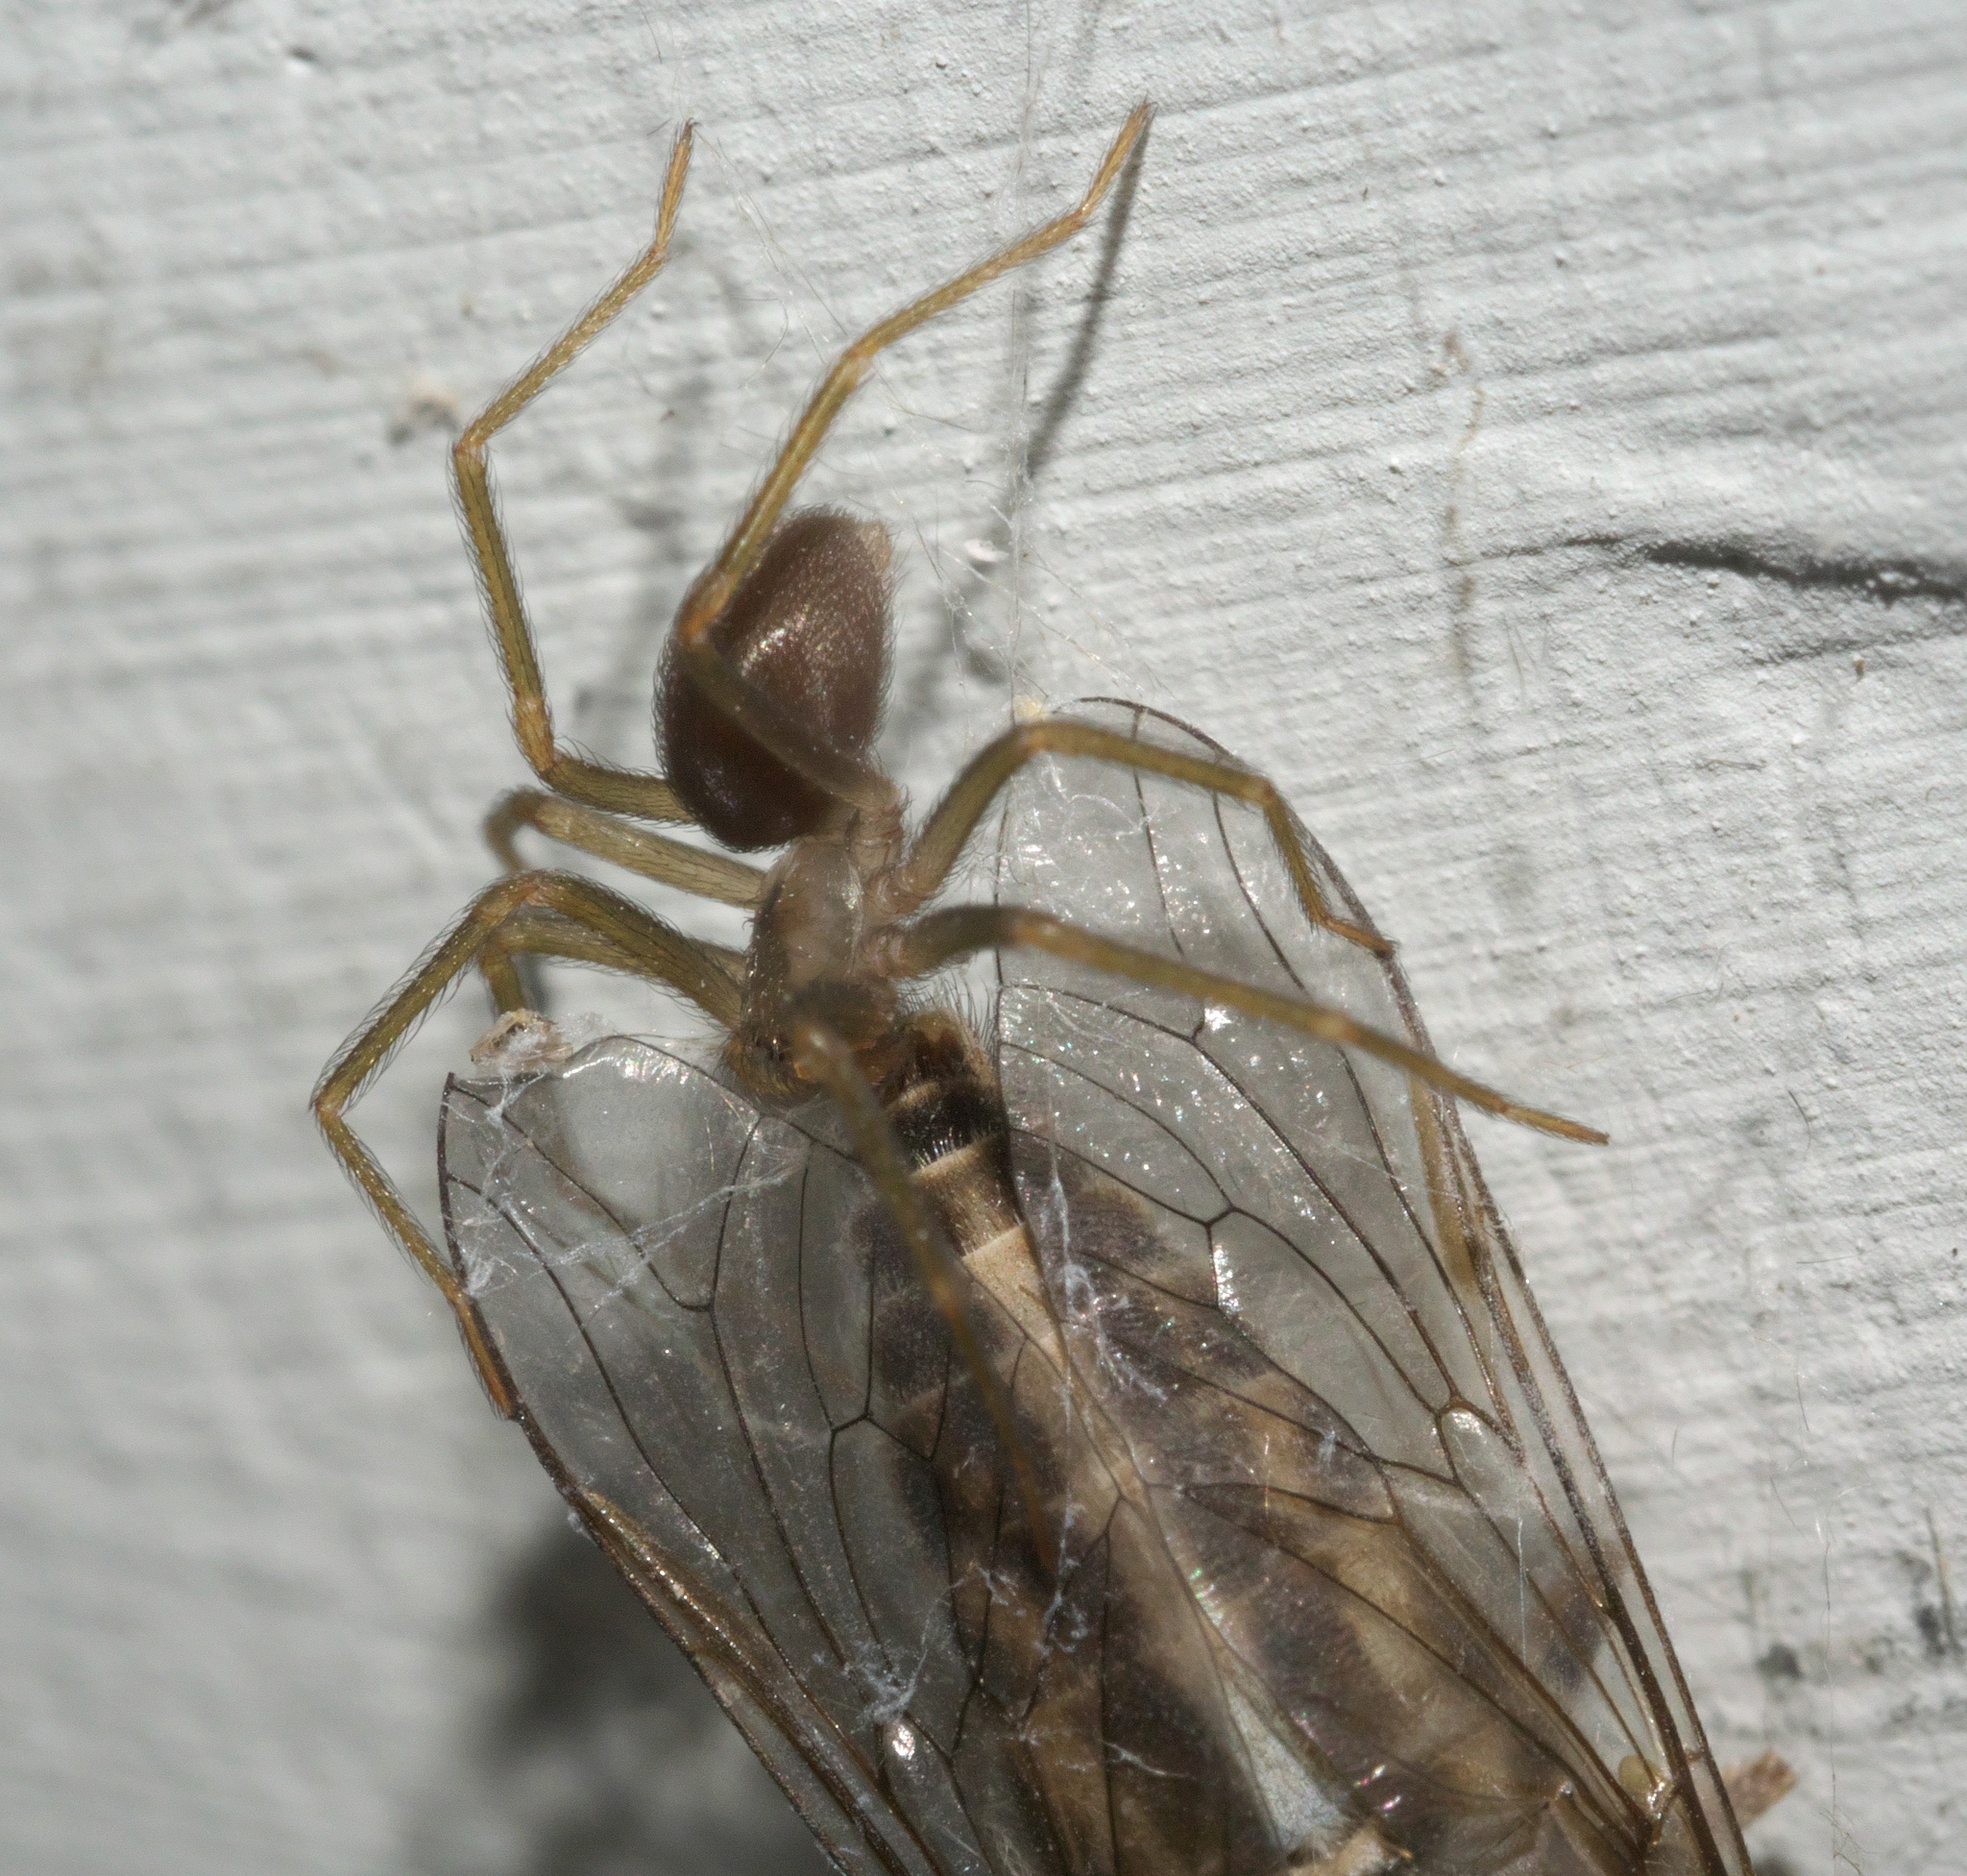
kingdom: Animalia
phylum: Arthropoda
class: Arachnida
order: Araneae
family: Sicariidae
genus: Loxosceles
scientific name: Loxosceles reclusa
